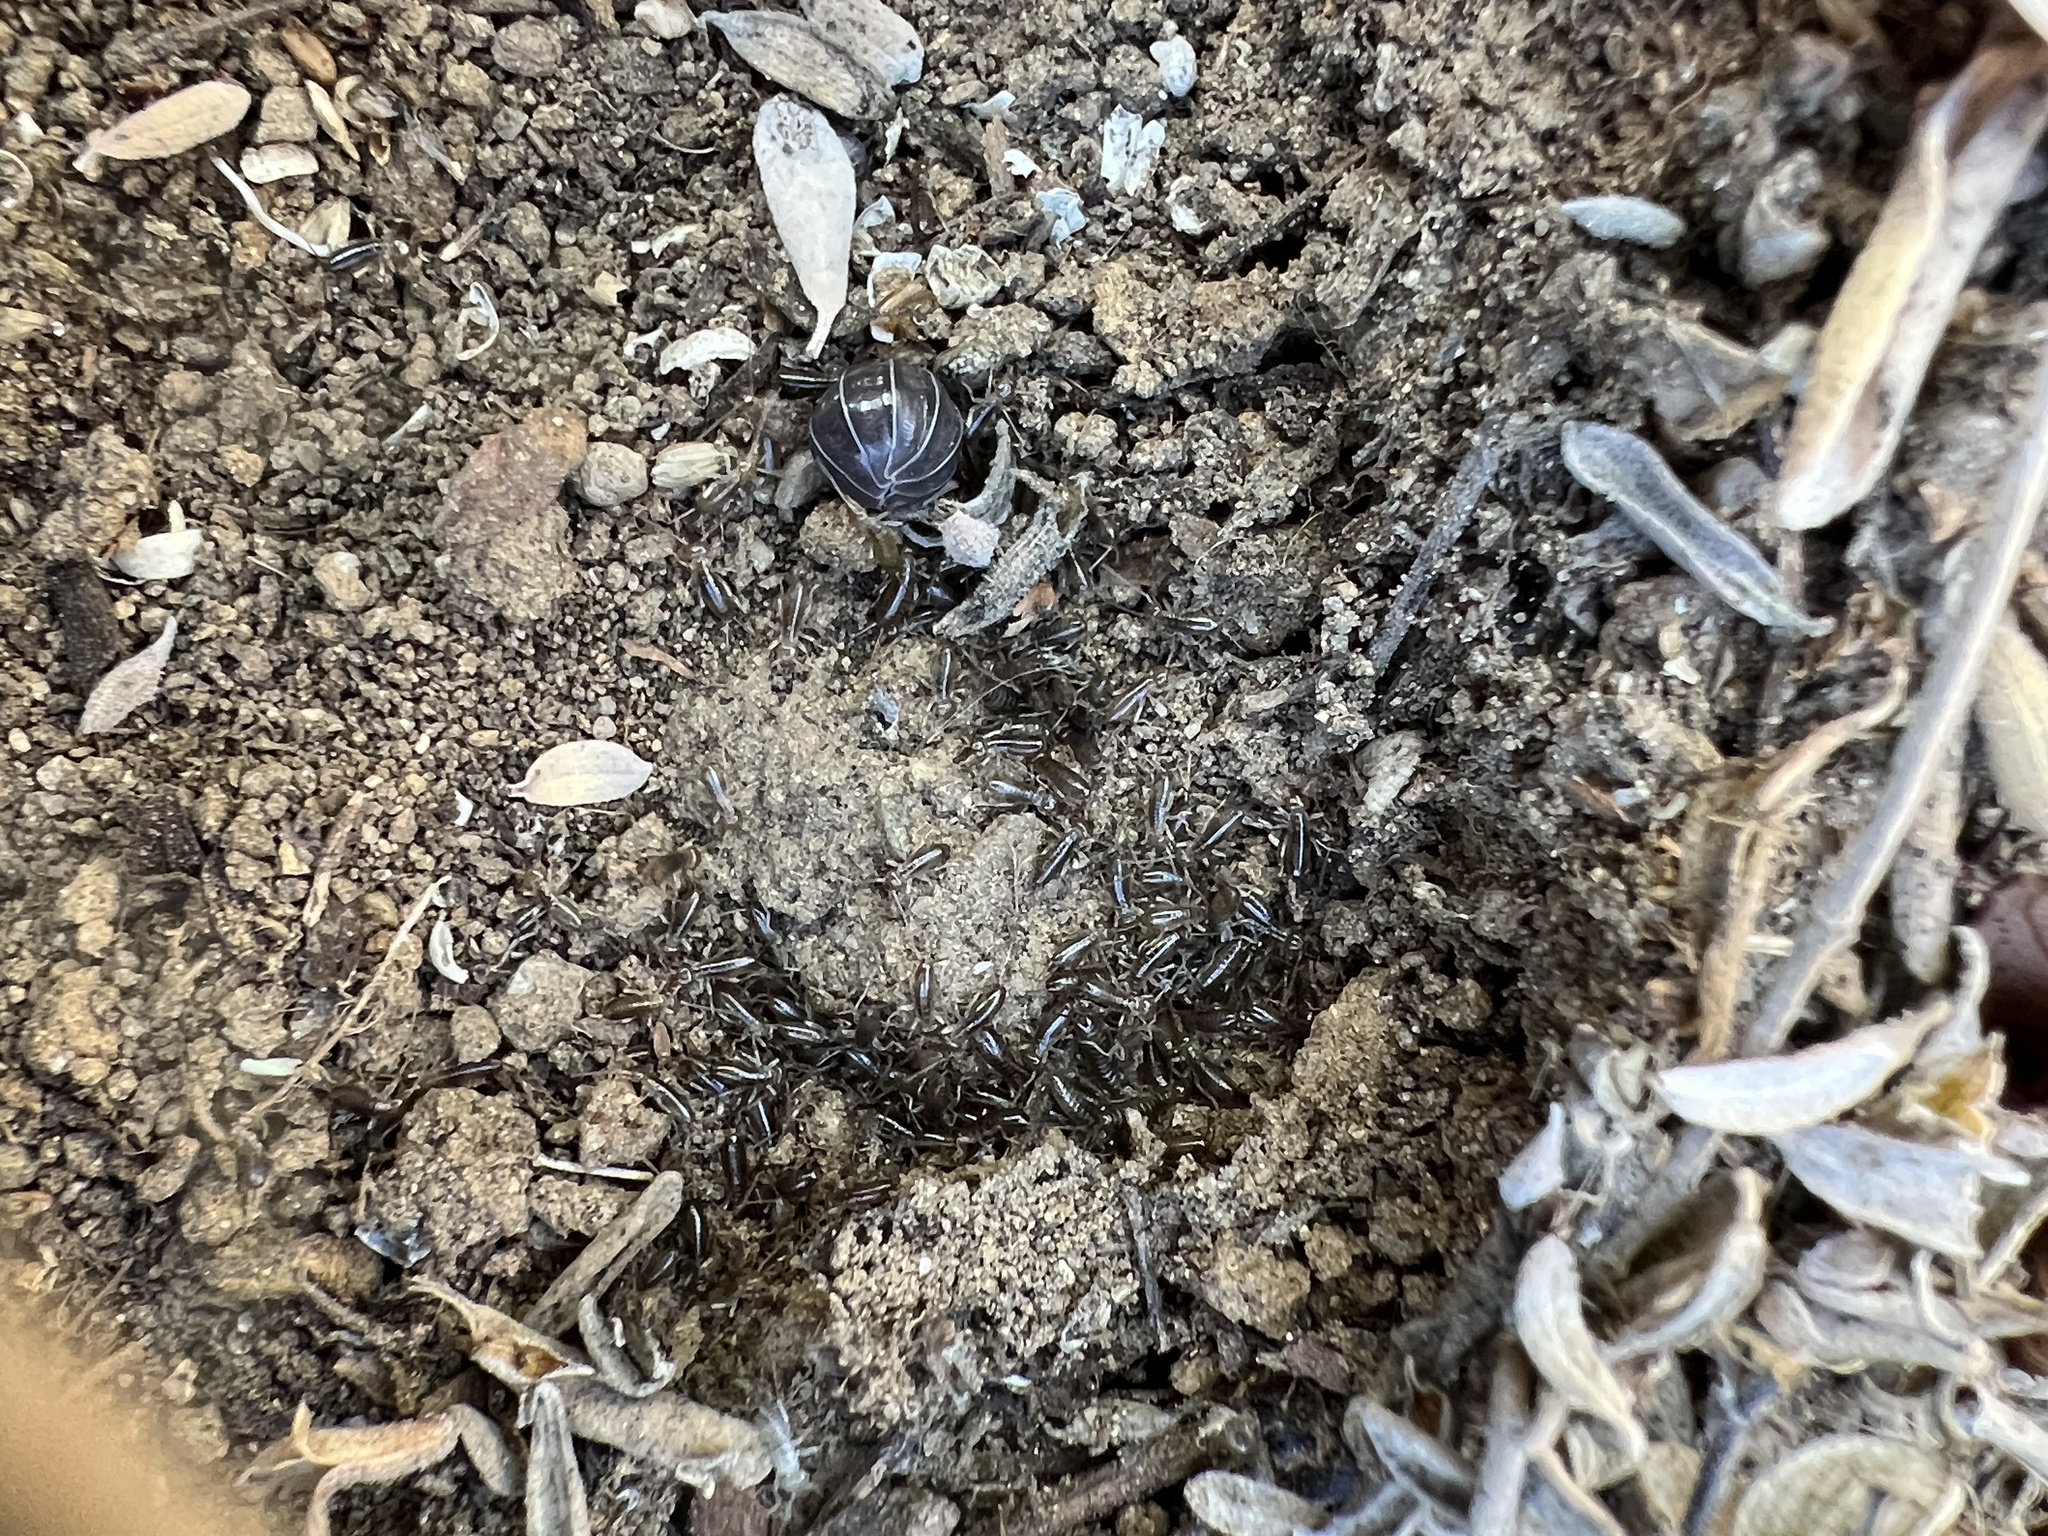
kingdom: Animalia
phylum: Arthropoda
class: Insecta
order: Dermaptera
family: Forficulidae
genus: Forficula
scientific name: Forficula dentata
